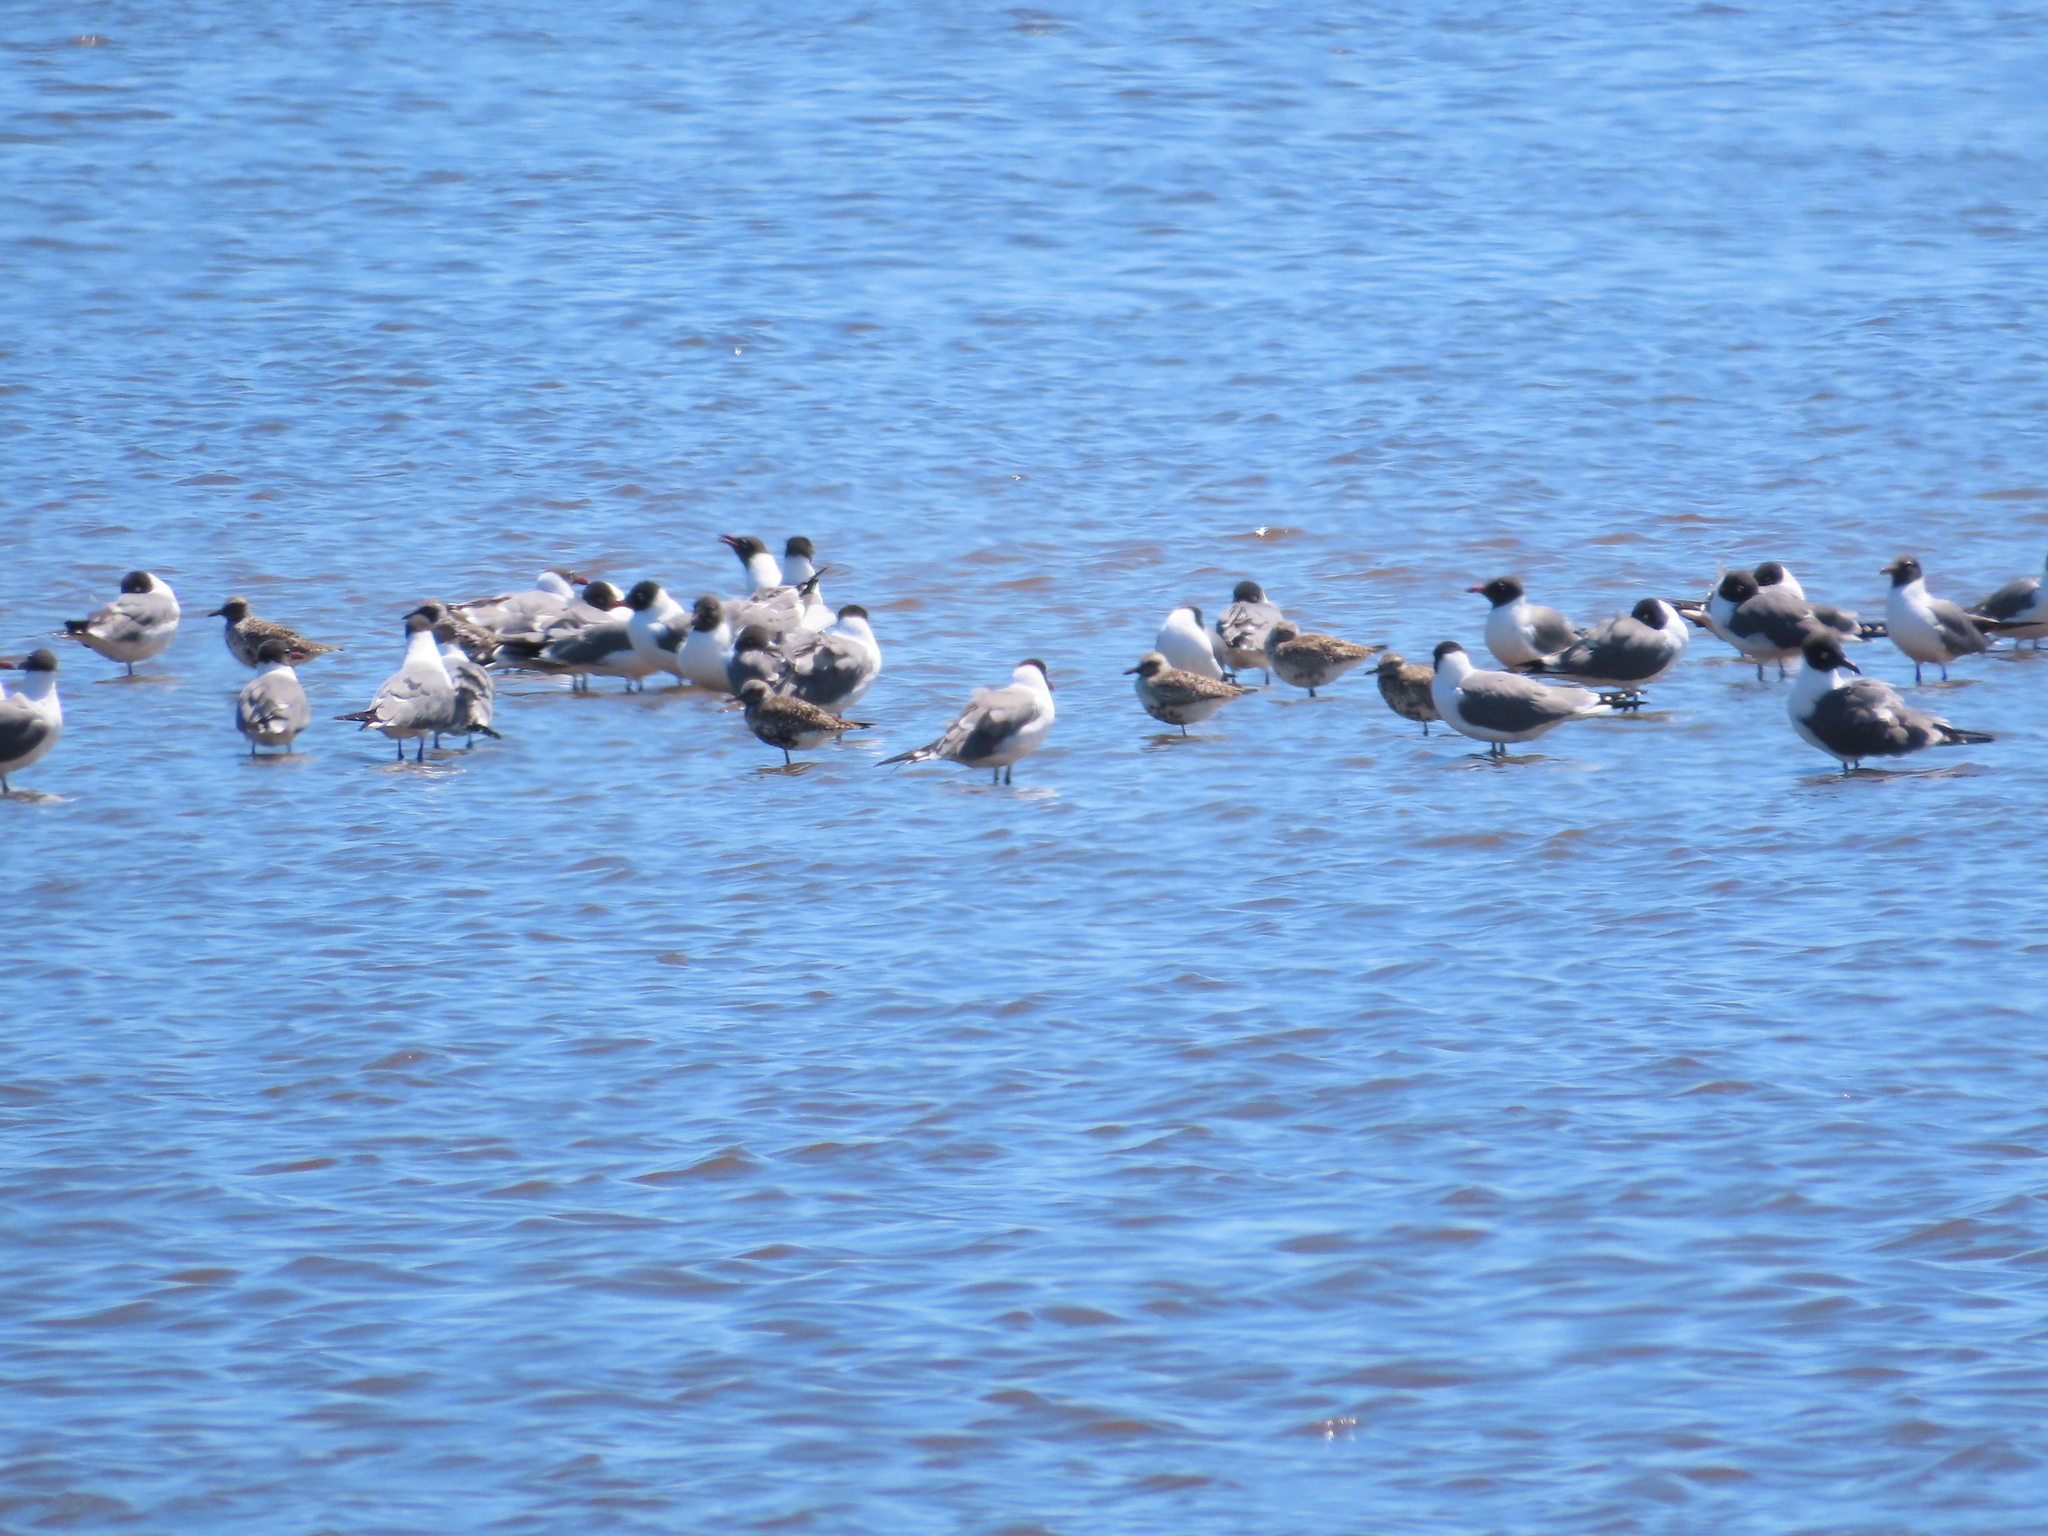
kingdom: Animalia
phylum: Chordata
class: Aves
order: Charadriiformes
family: Charadriidae
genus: Pluvialis
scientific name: Pluvialis squatarola
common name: Grey plover
